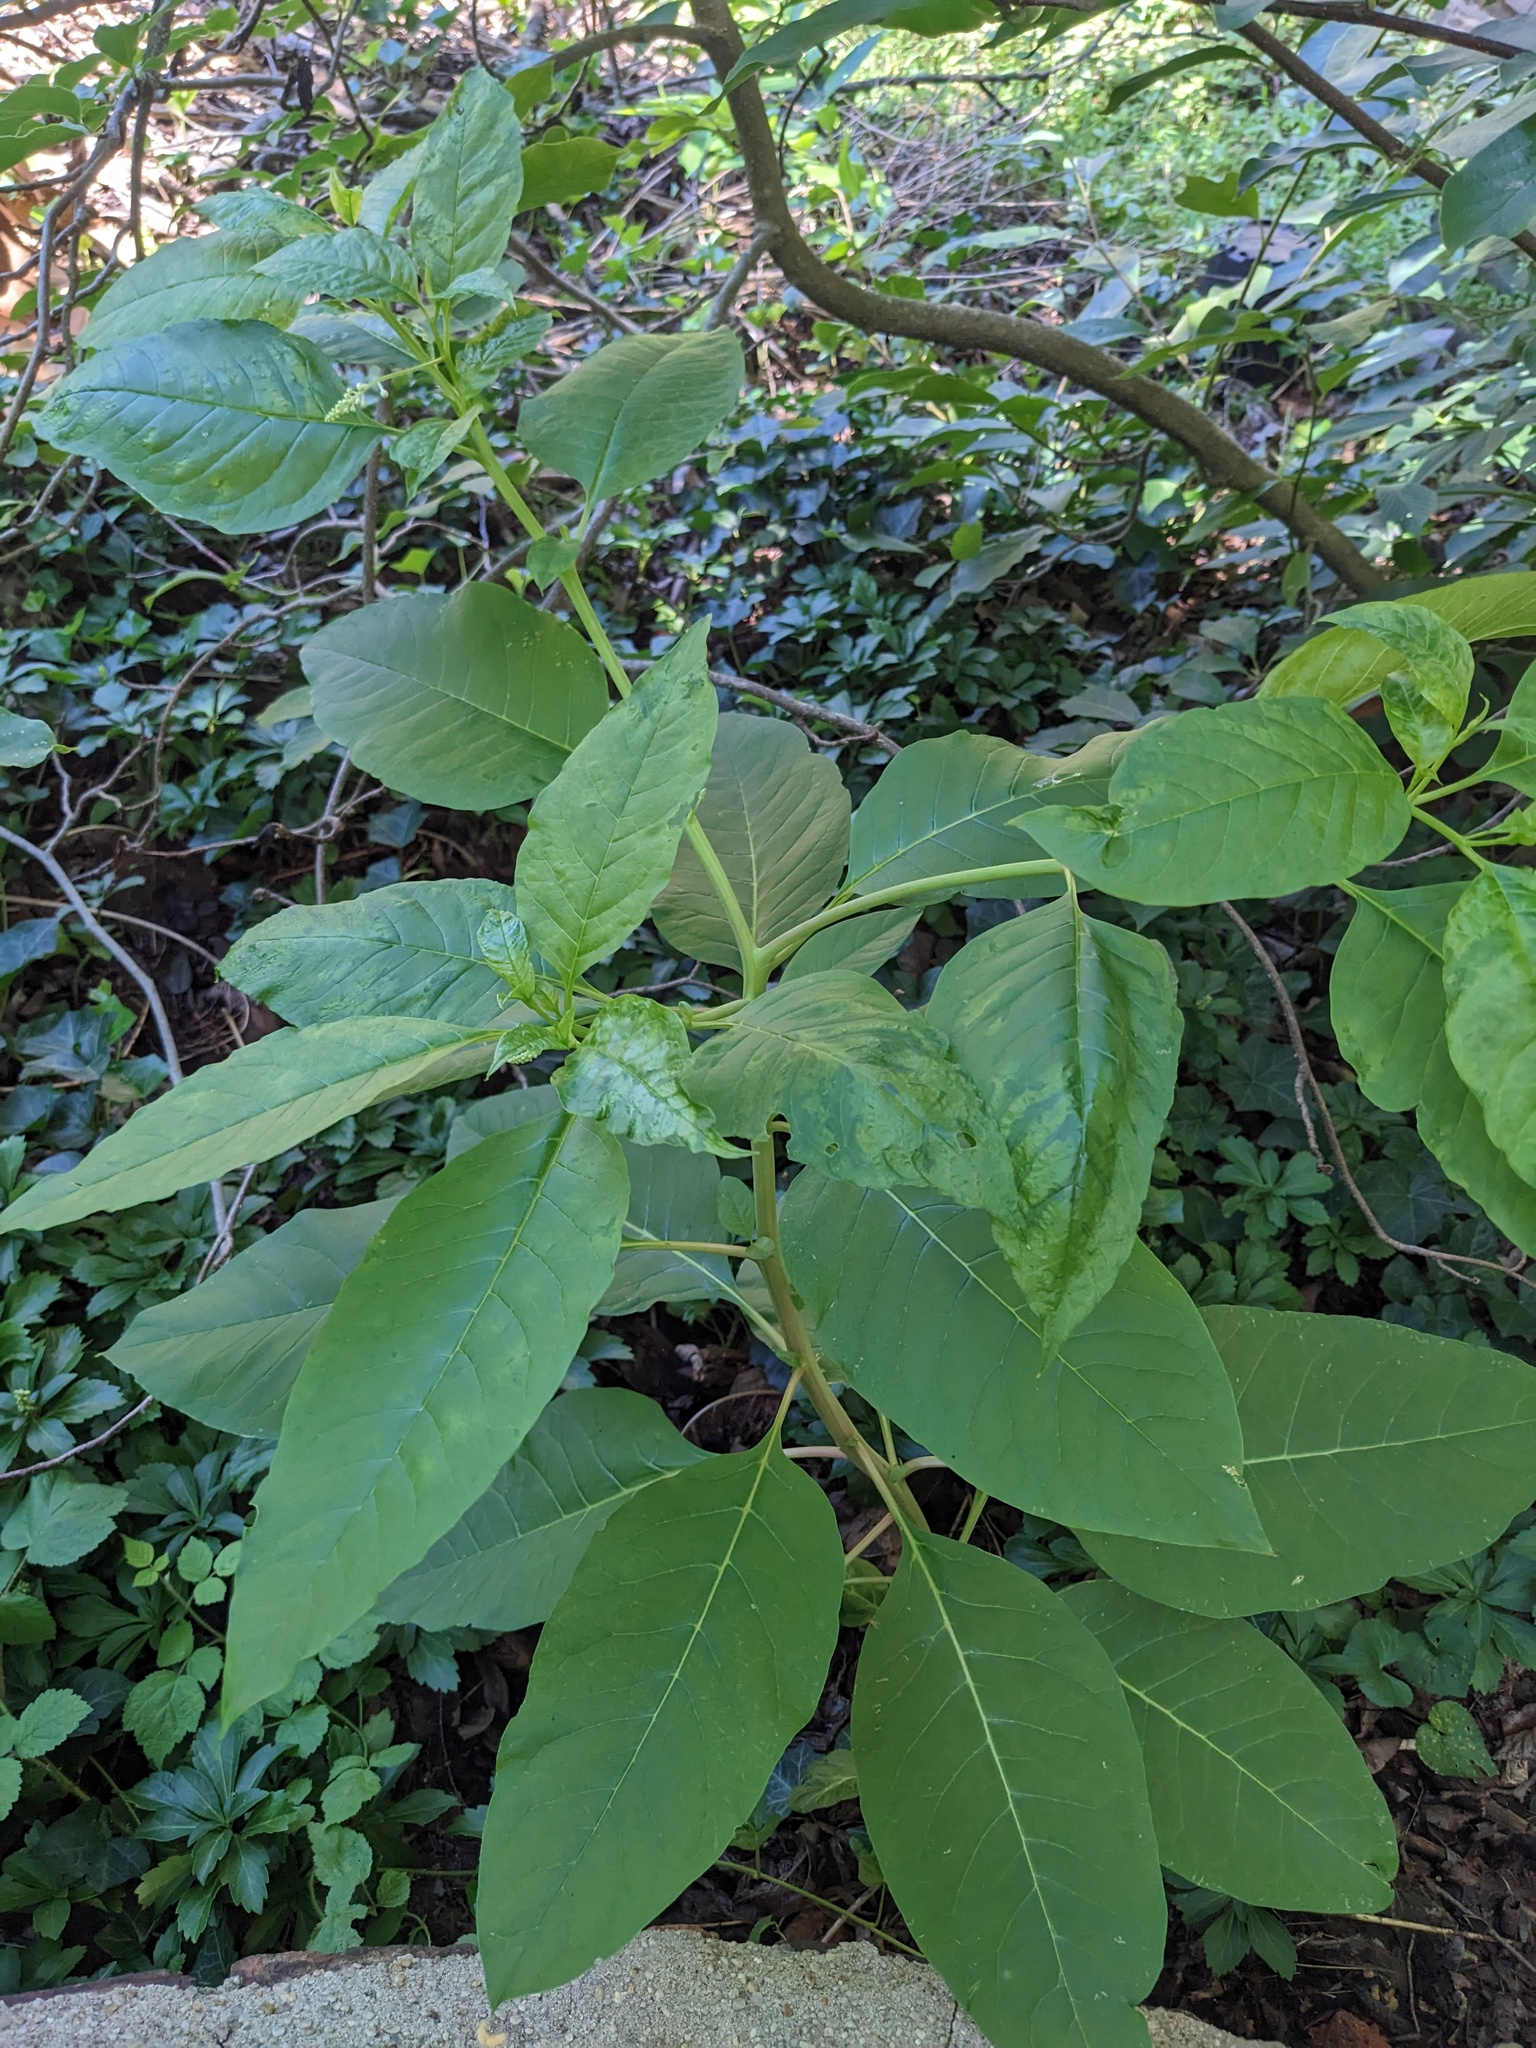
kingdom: Plantae
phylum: Tracheophyta
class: Magnoliopsida
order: Caryophyllales
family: Phytolaccaceae
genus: Phytolacca
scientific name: Phytolacca americana
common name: American pokeweed
